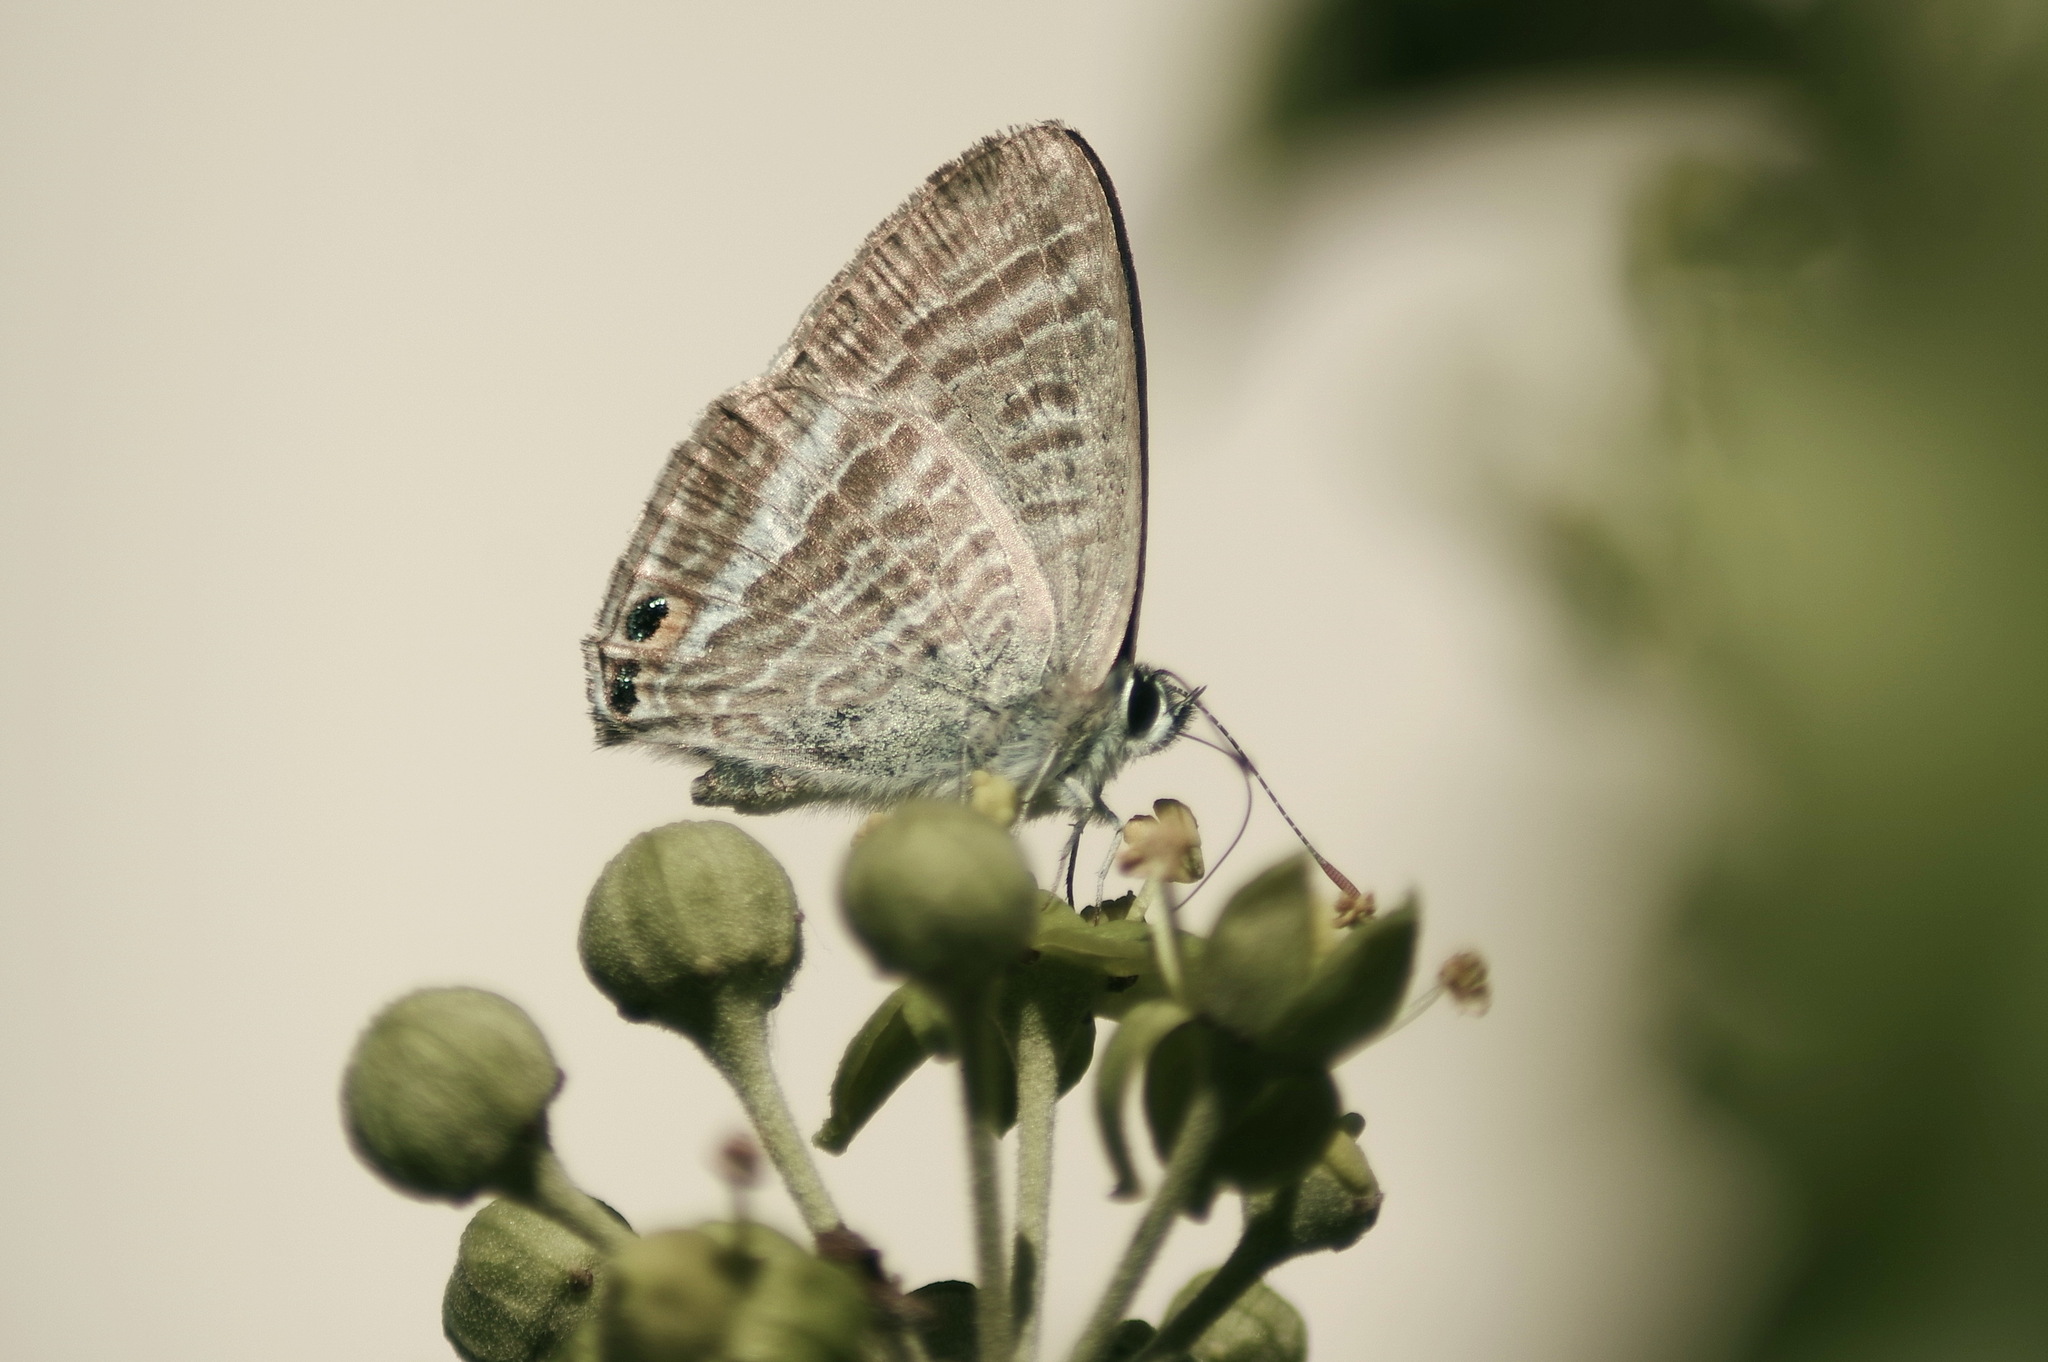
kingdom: Animalia
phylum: Arthropoda
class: Insecta
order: Lepidoptera
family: Lycaenidae
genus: Lampides
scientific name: Lampides boeticus
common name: Long-tailed blue
